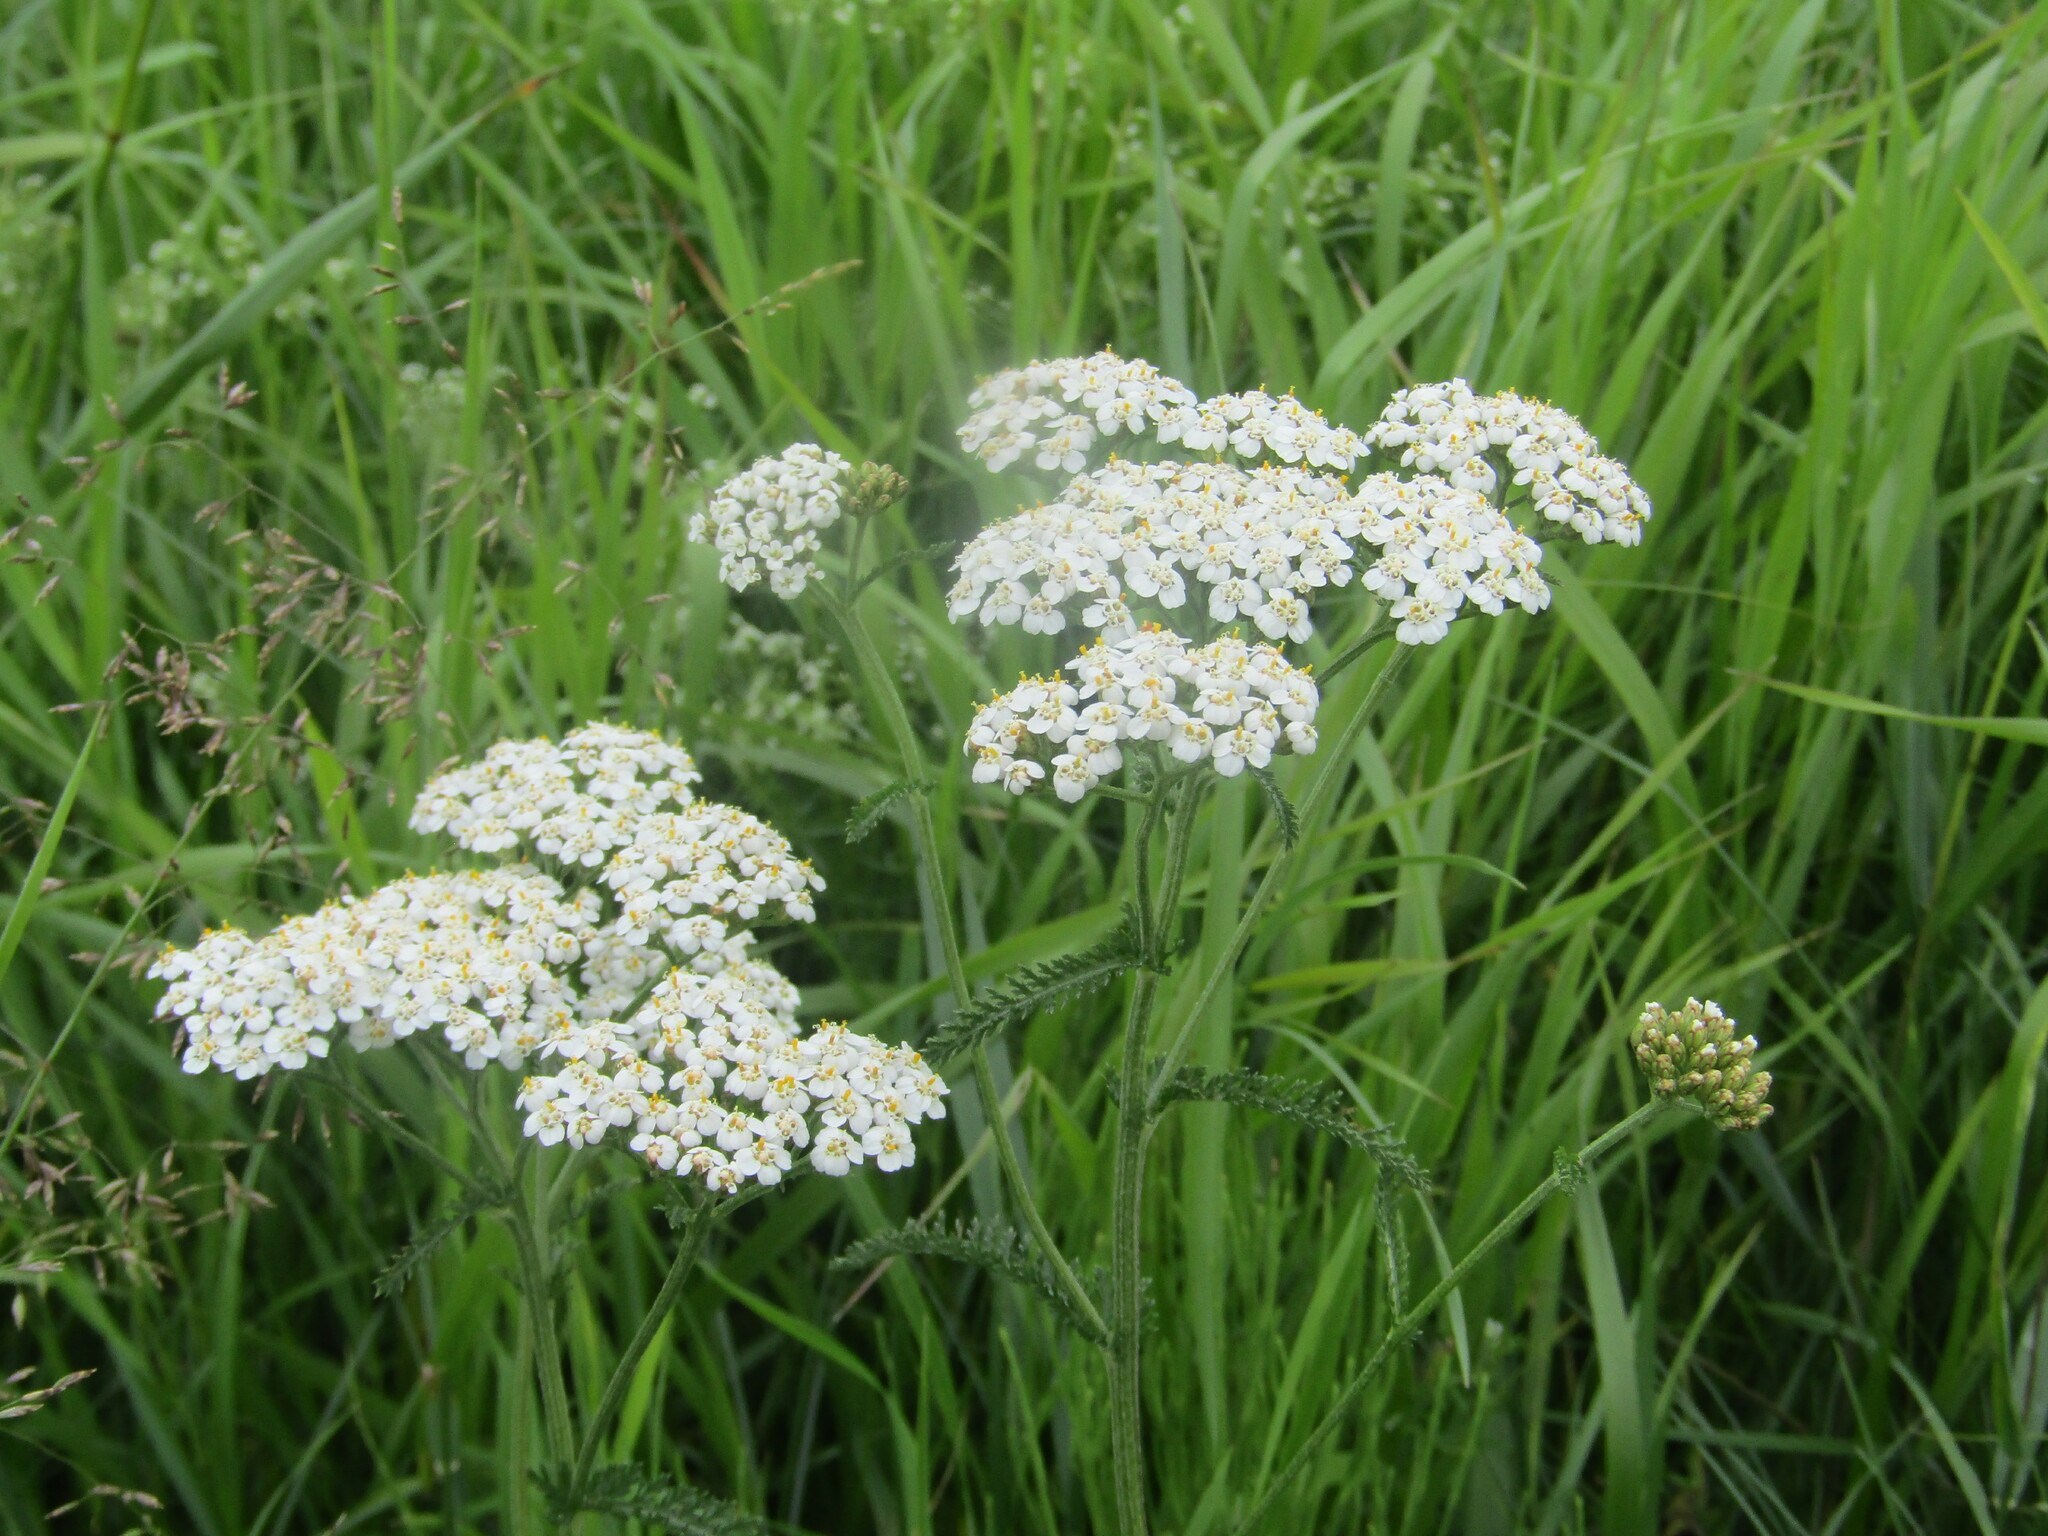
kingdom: Plantae
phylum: Tracheophyta
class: Magnoliopsida
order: Asterales
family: Asteraceae
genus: Achillea
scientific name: Achillea millefolium
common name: Yarrow
